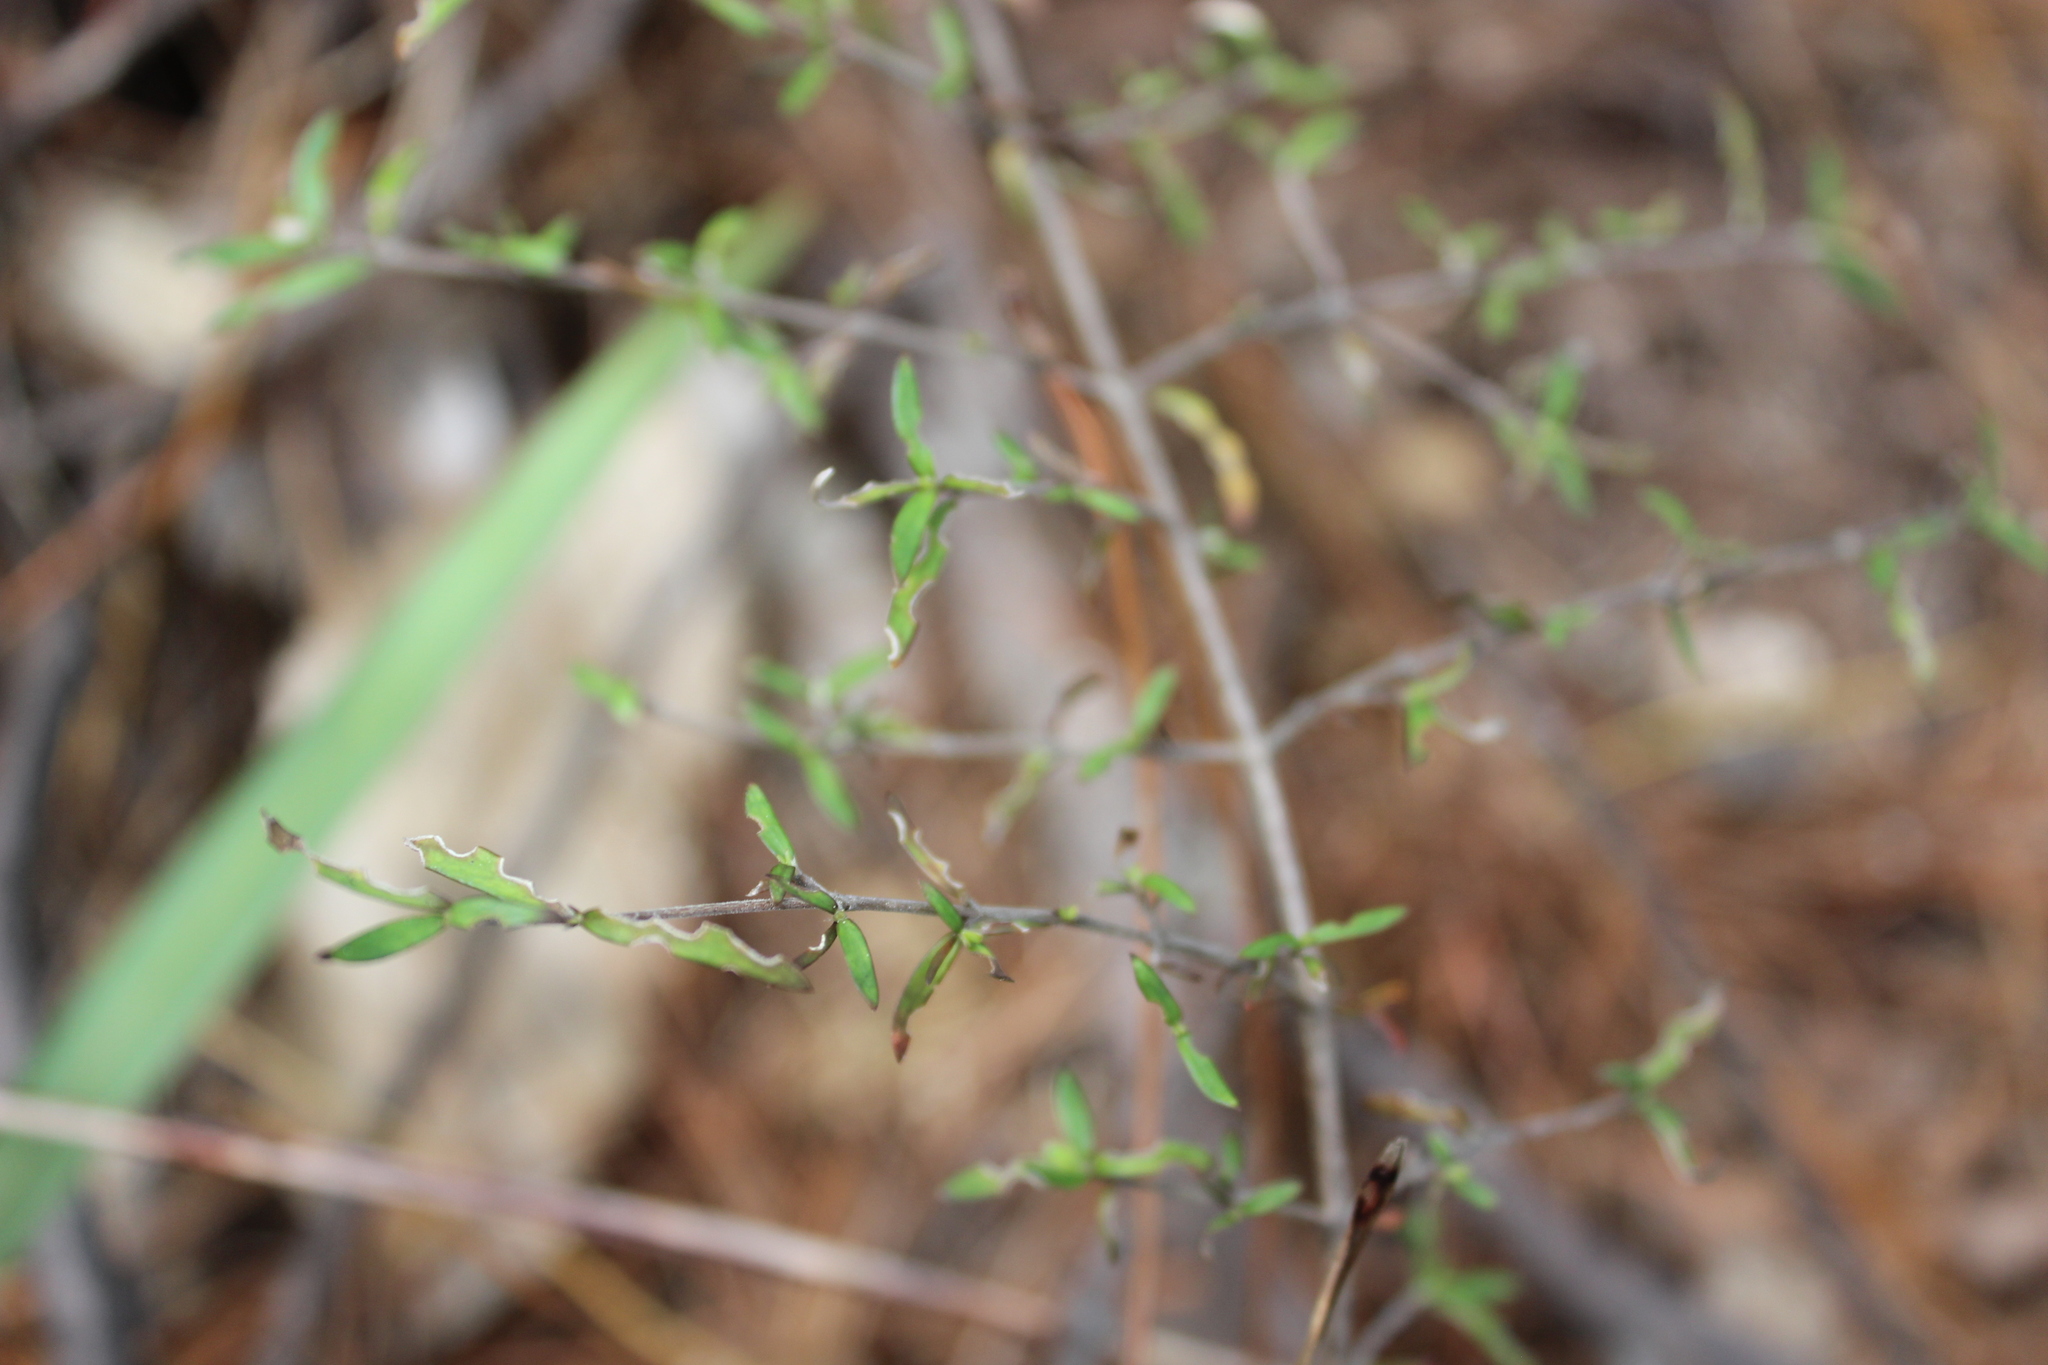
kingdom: Plantae
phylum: Tracheophyta
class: Magnoliopsida
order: Gentianales
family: Rubiaceae
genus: Coprosma
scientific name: Coprosma linariifolia
